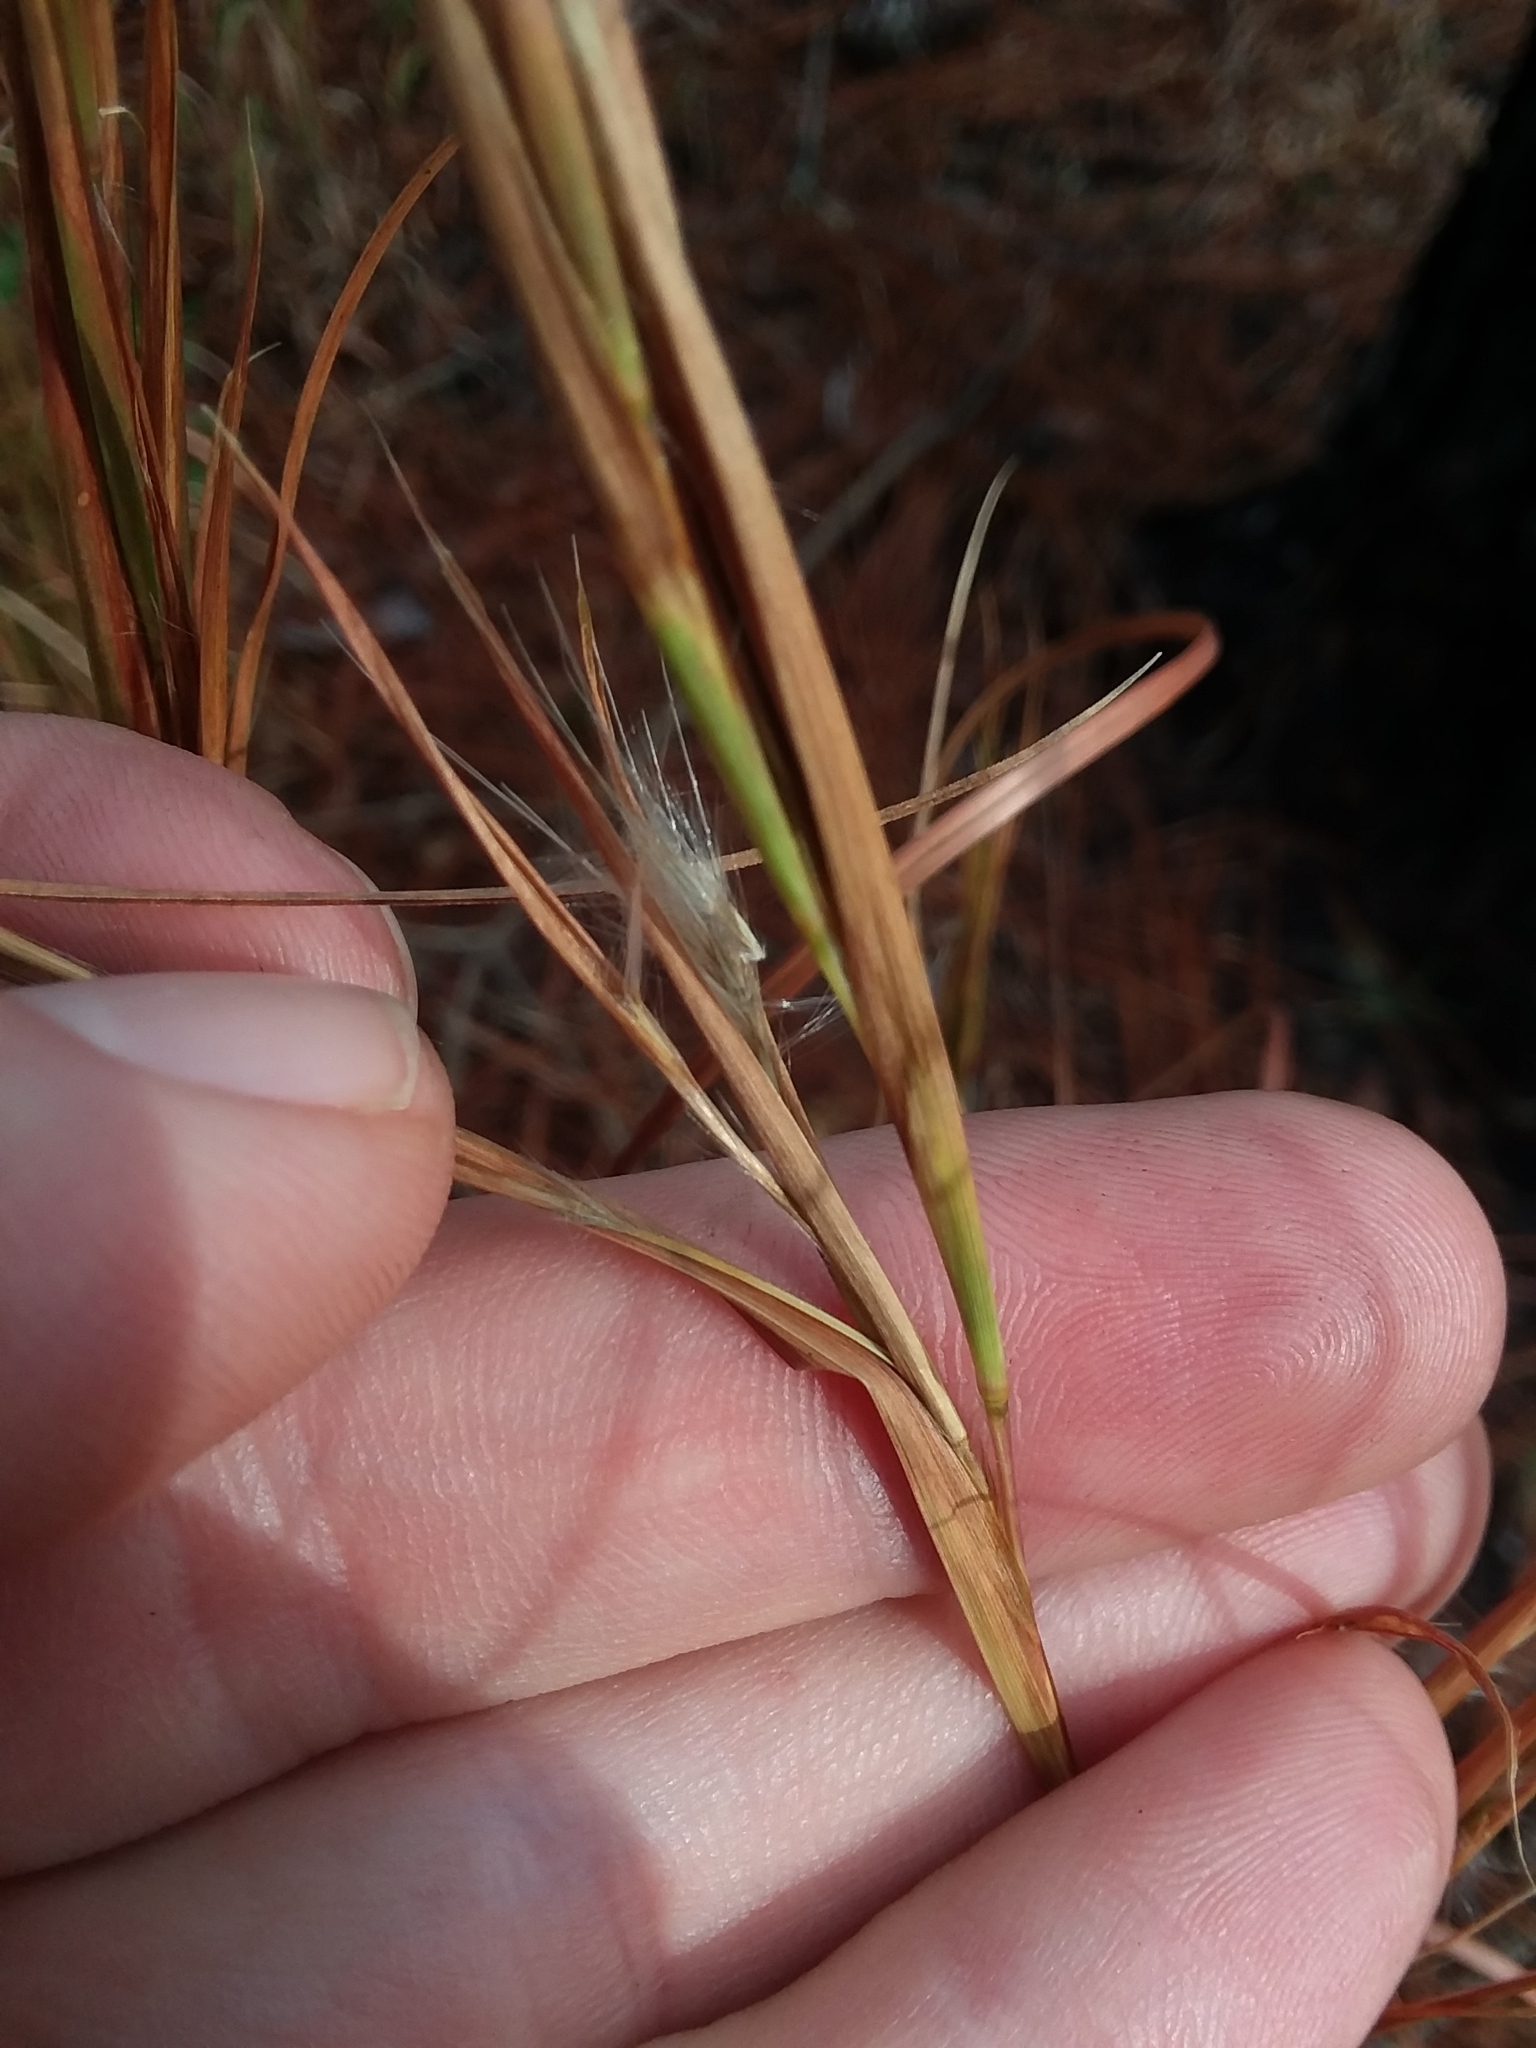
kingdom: Plantae
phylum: Tracheophyta
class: Liliopsida
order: Poales
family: Poaceae
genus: Andropogon
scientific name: Andropogon virginicus
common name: Broomsedge bluestem
